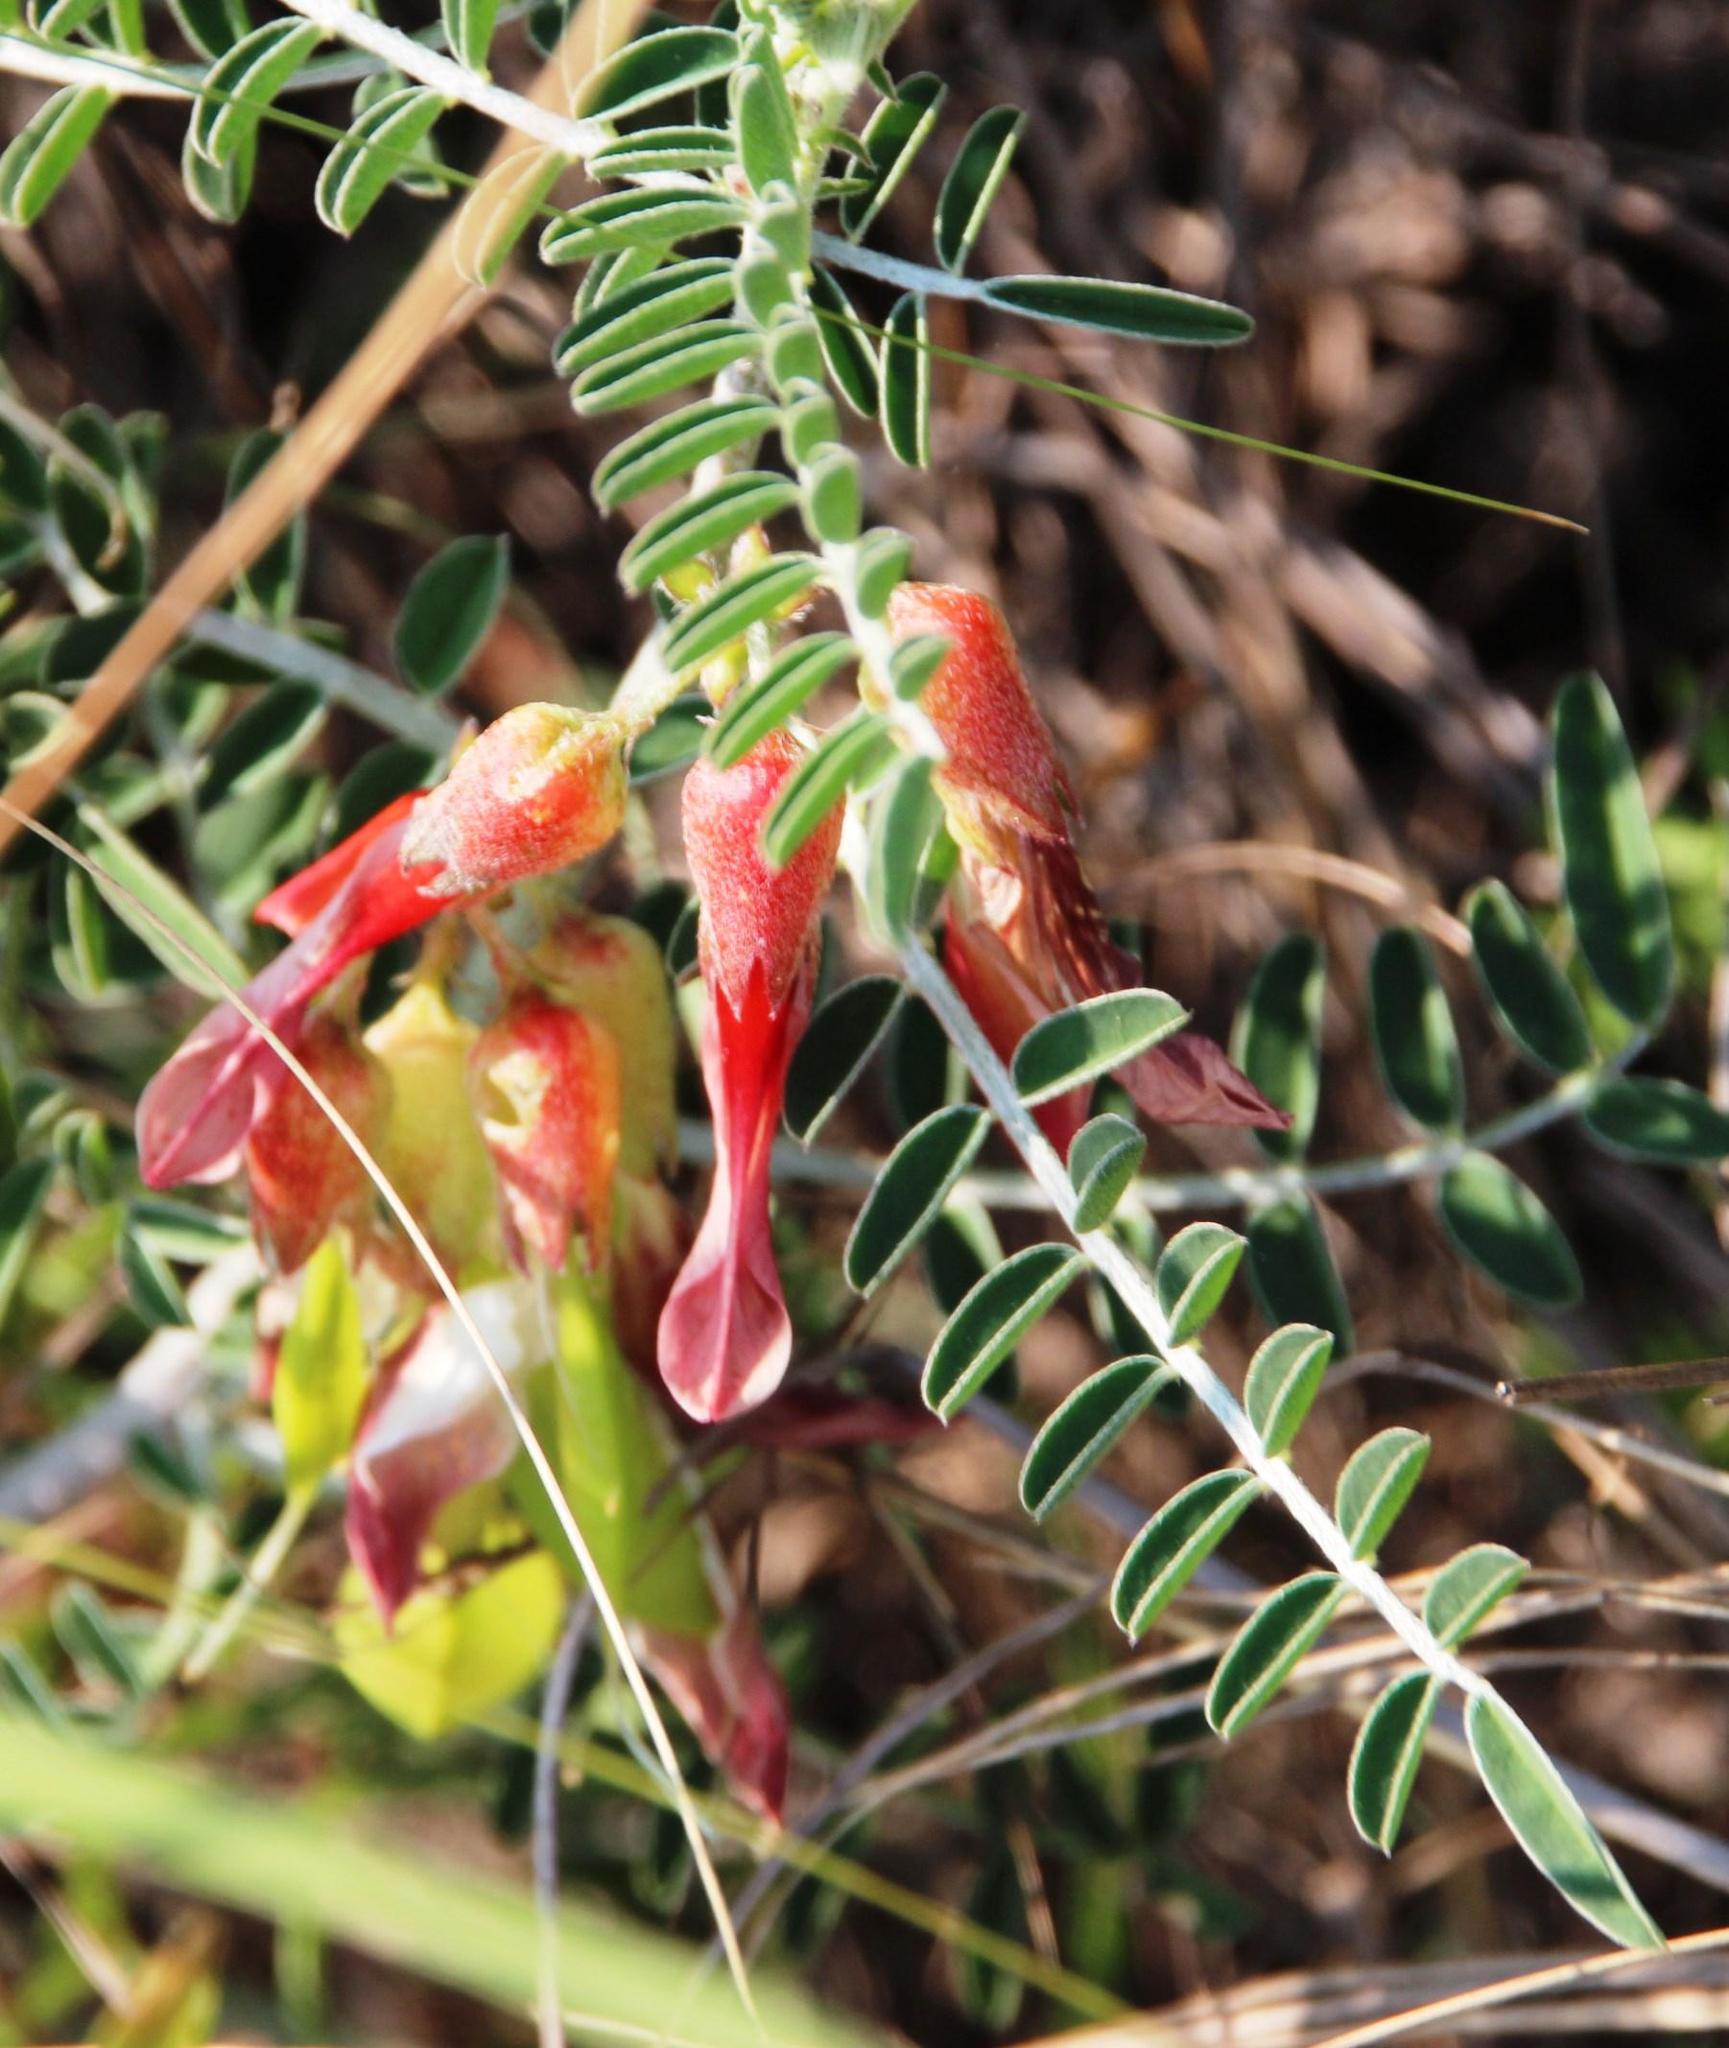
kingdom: Plantae
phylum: Tracheophyta
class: Magnoliopsida
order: Fabales
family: Fabaceae
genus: Lessertia
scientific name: Lessertia frutescens
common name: Balloon-pea
